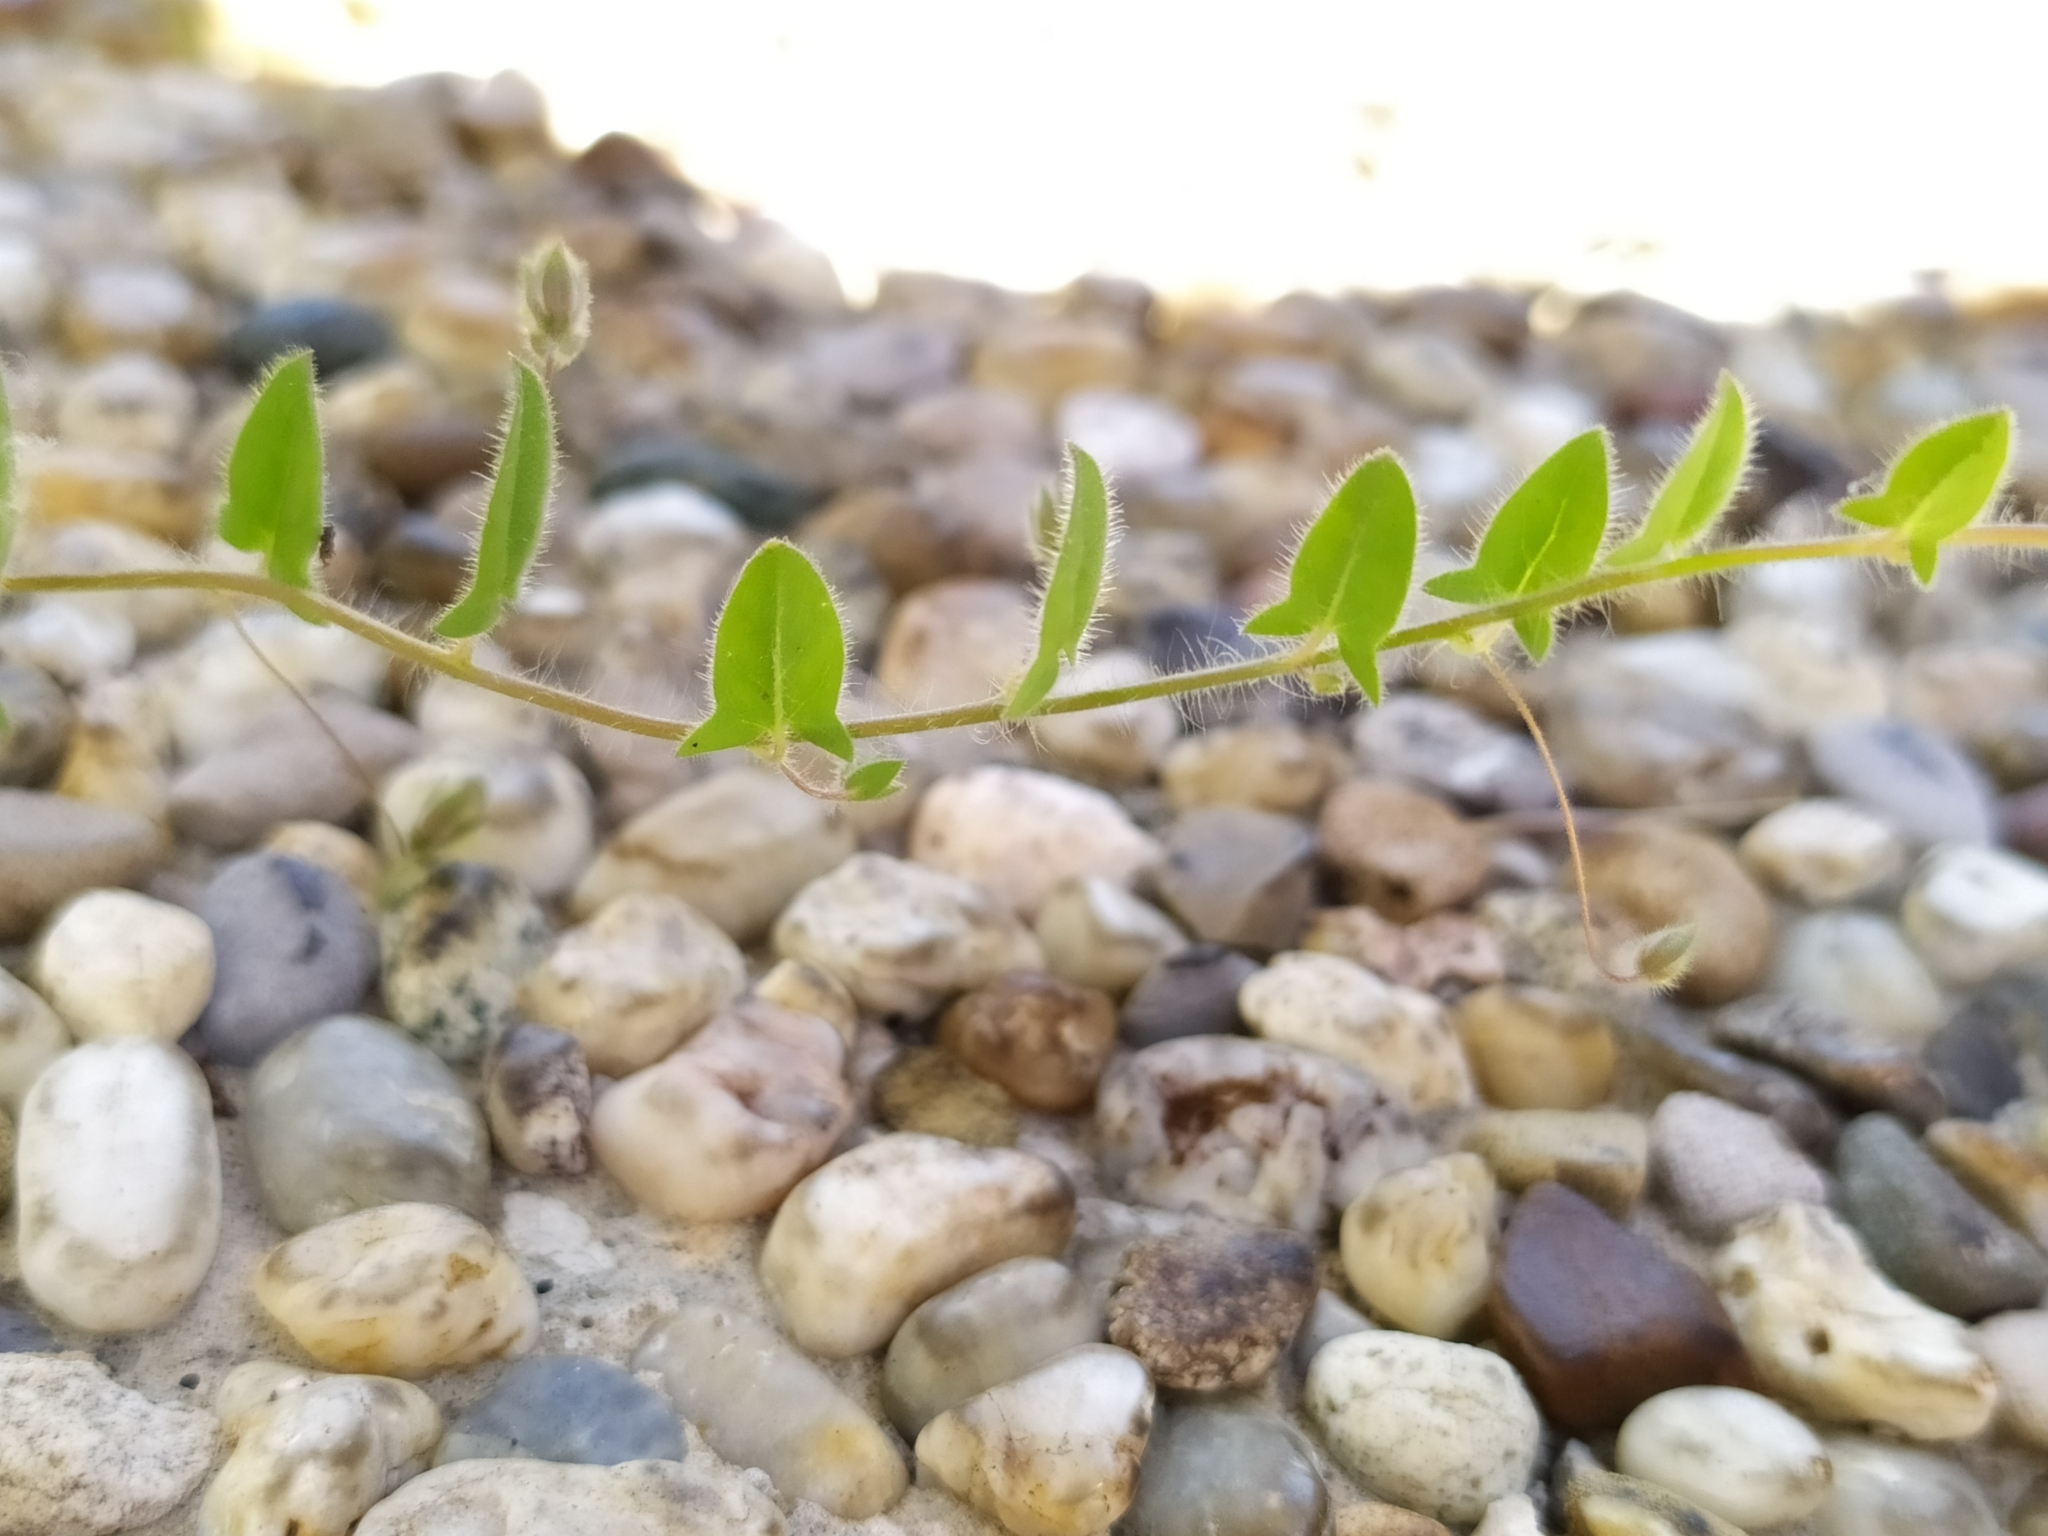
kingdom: Plantae
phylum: Tracheophyta
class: Magnoliopsida
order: Lamiales
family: Plantaginaceae
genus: Kickxia
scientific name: Kickxia elatine
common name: Sharp-leaved fluellen
